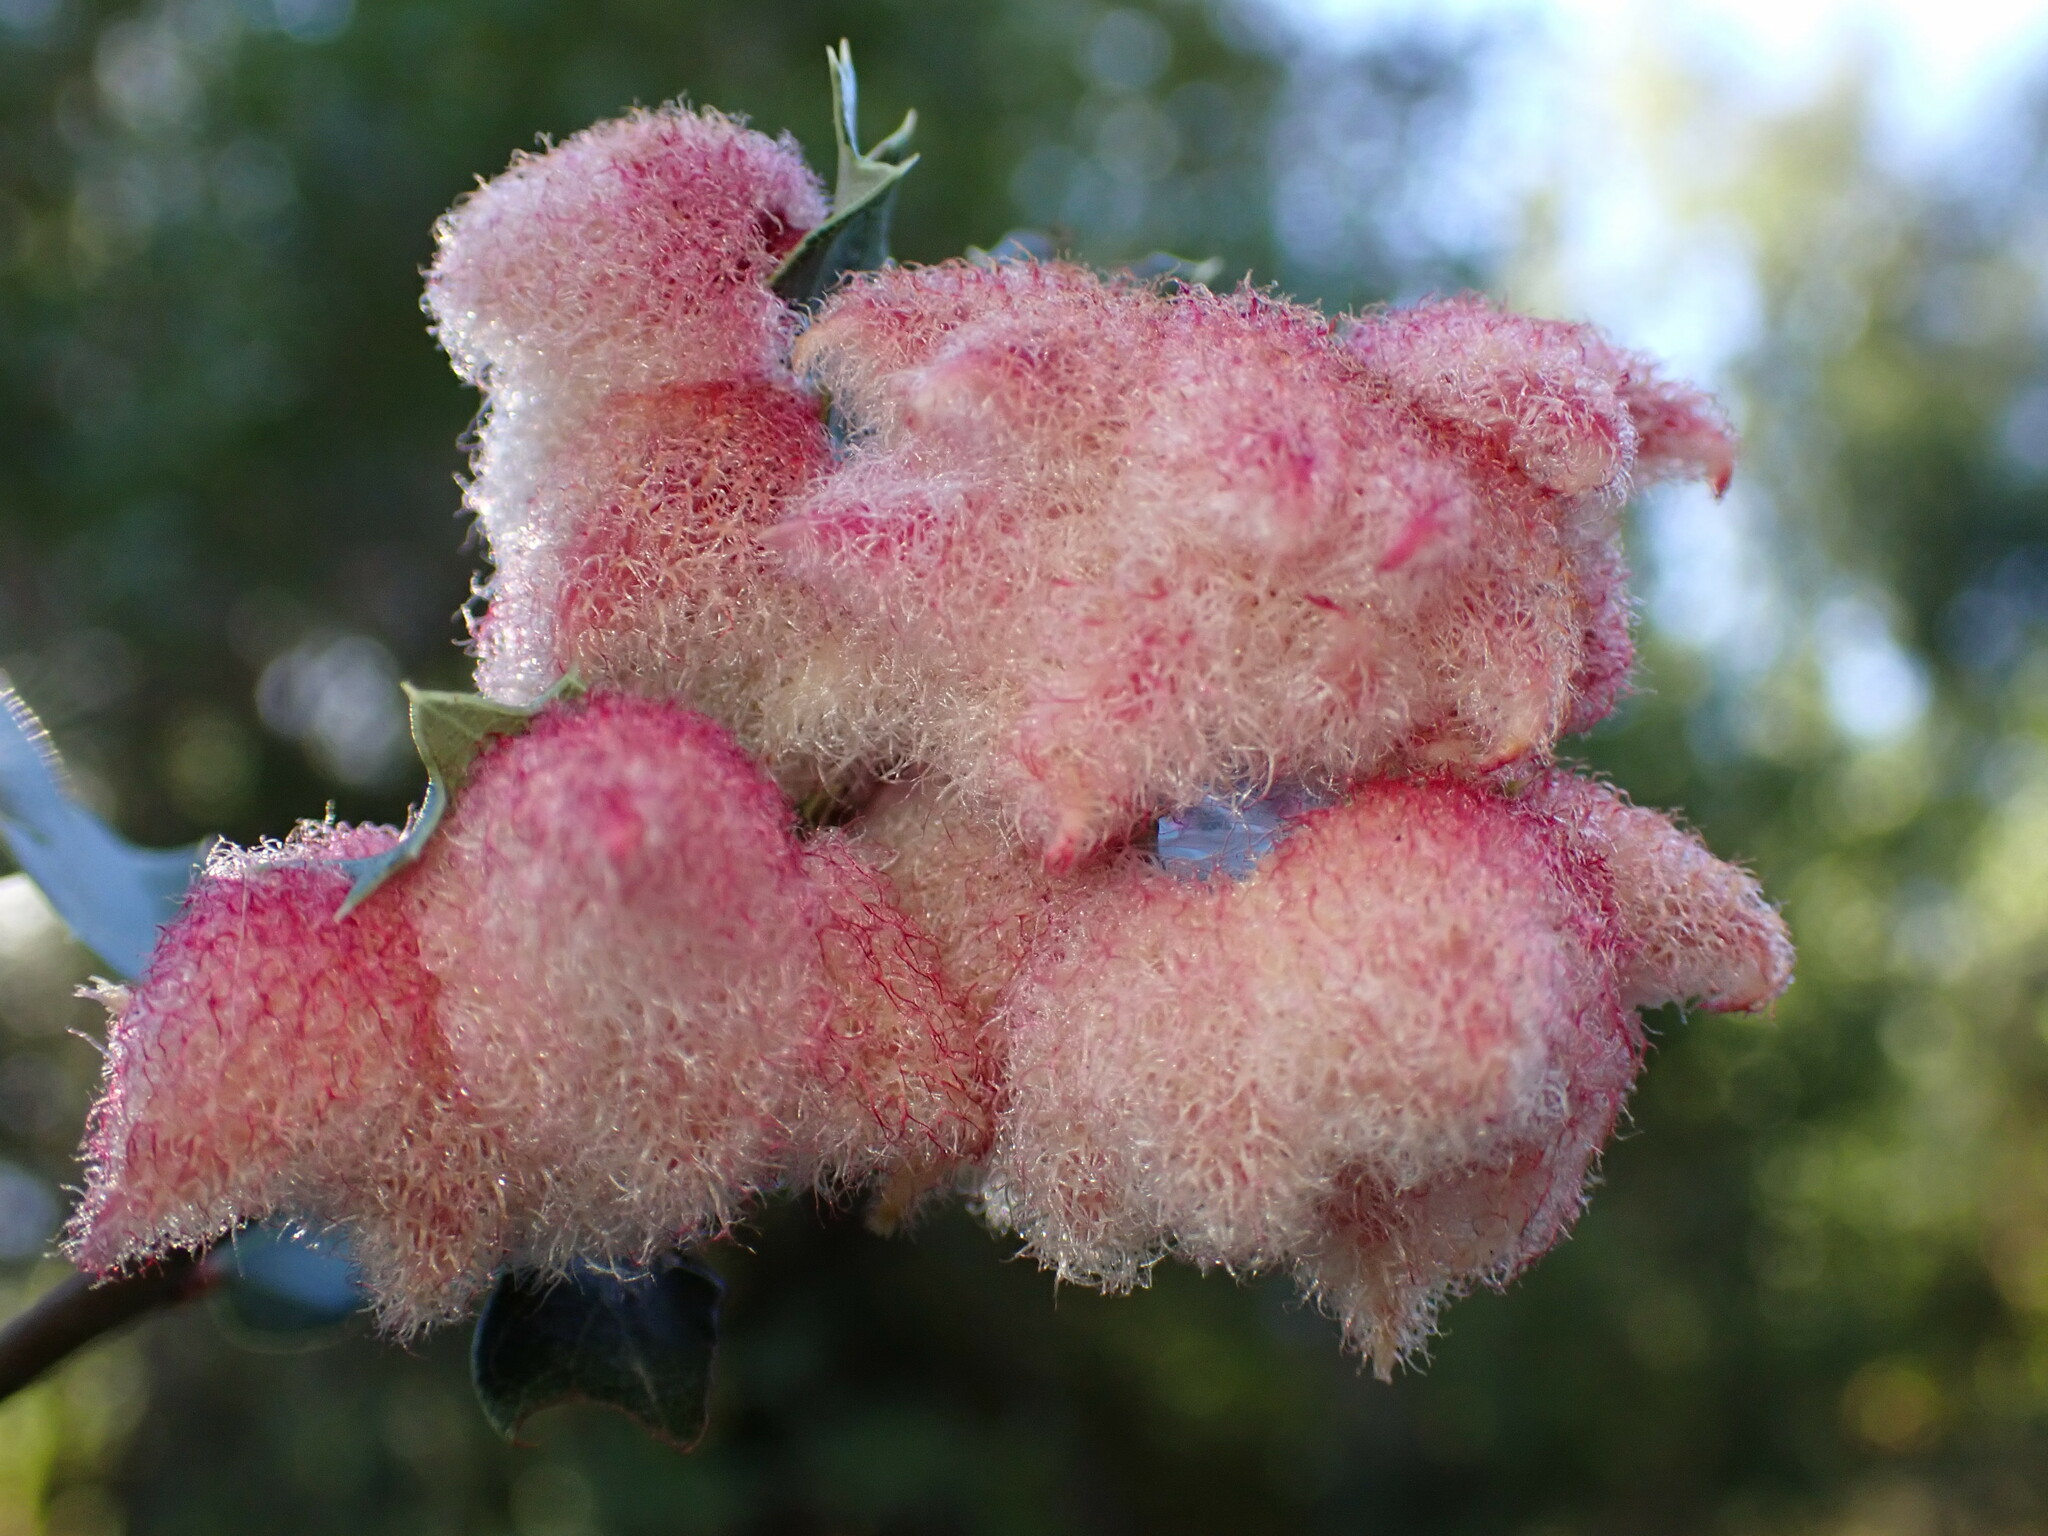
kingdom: Animalia
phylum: Arthropoda
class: Insecta
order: Hymenoptera
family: Cynipidae
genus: Andricus
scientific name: Andricus
